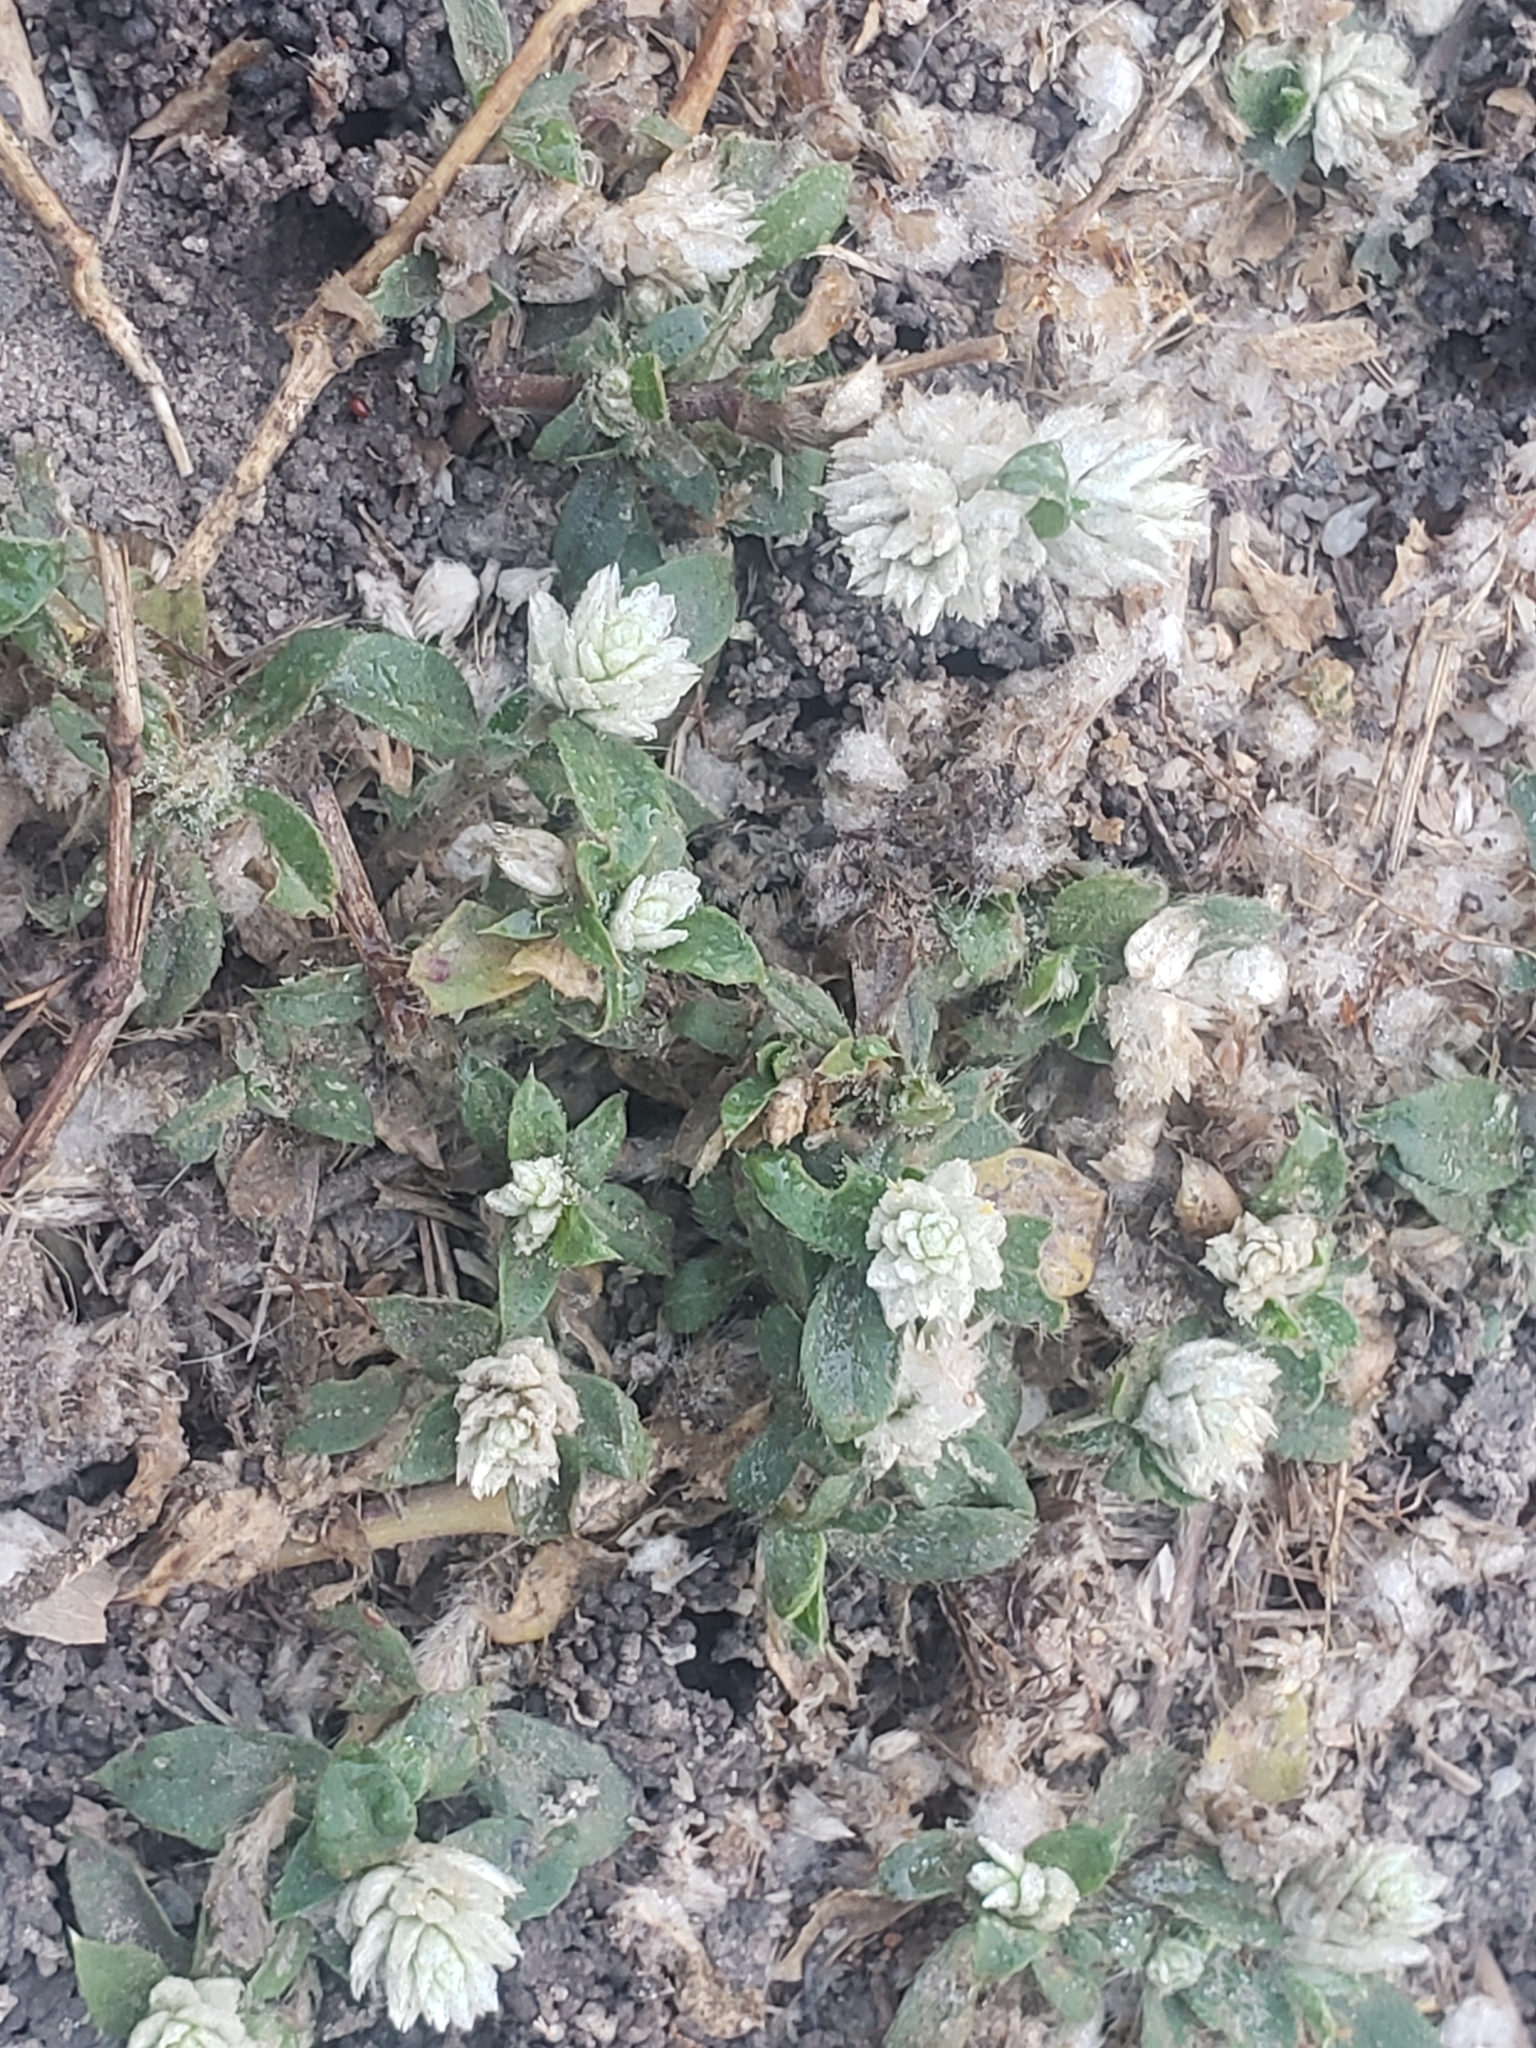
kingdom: Plantae
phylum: Tracheophyta
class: Magnoliopsida
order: Caryophyllales
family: Amaranthaceae
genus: Gomphrena
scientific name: Gomphrena celosioides
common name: Gomphrena-weed
